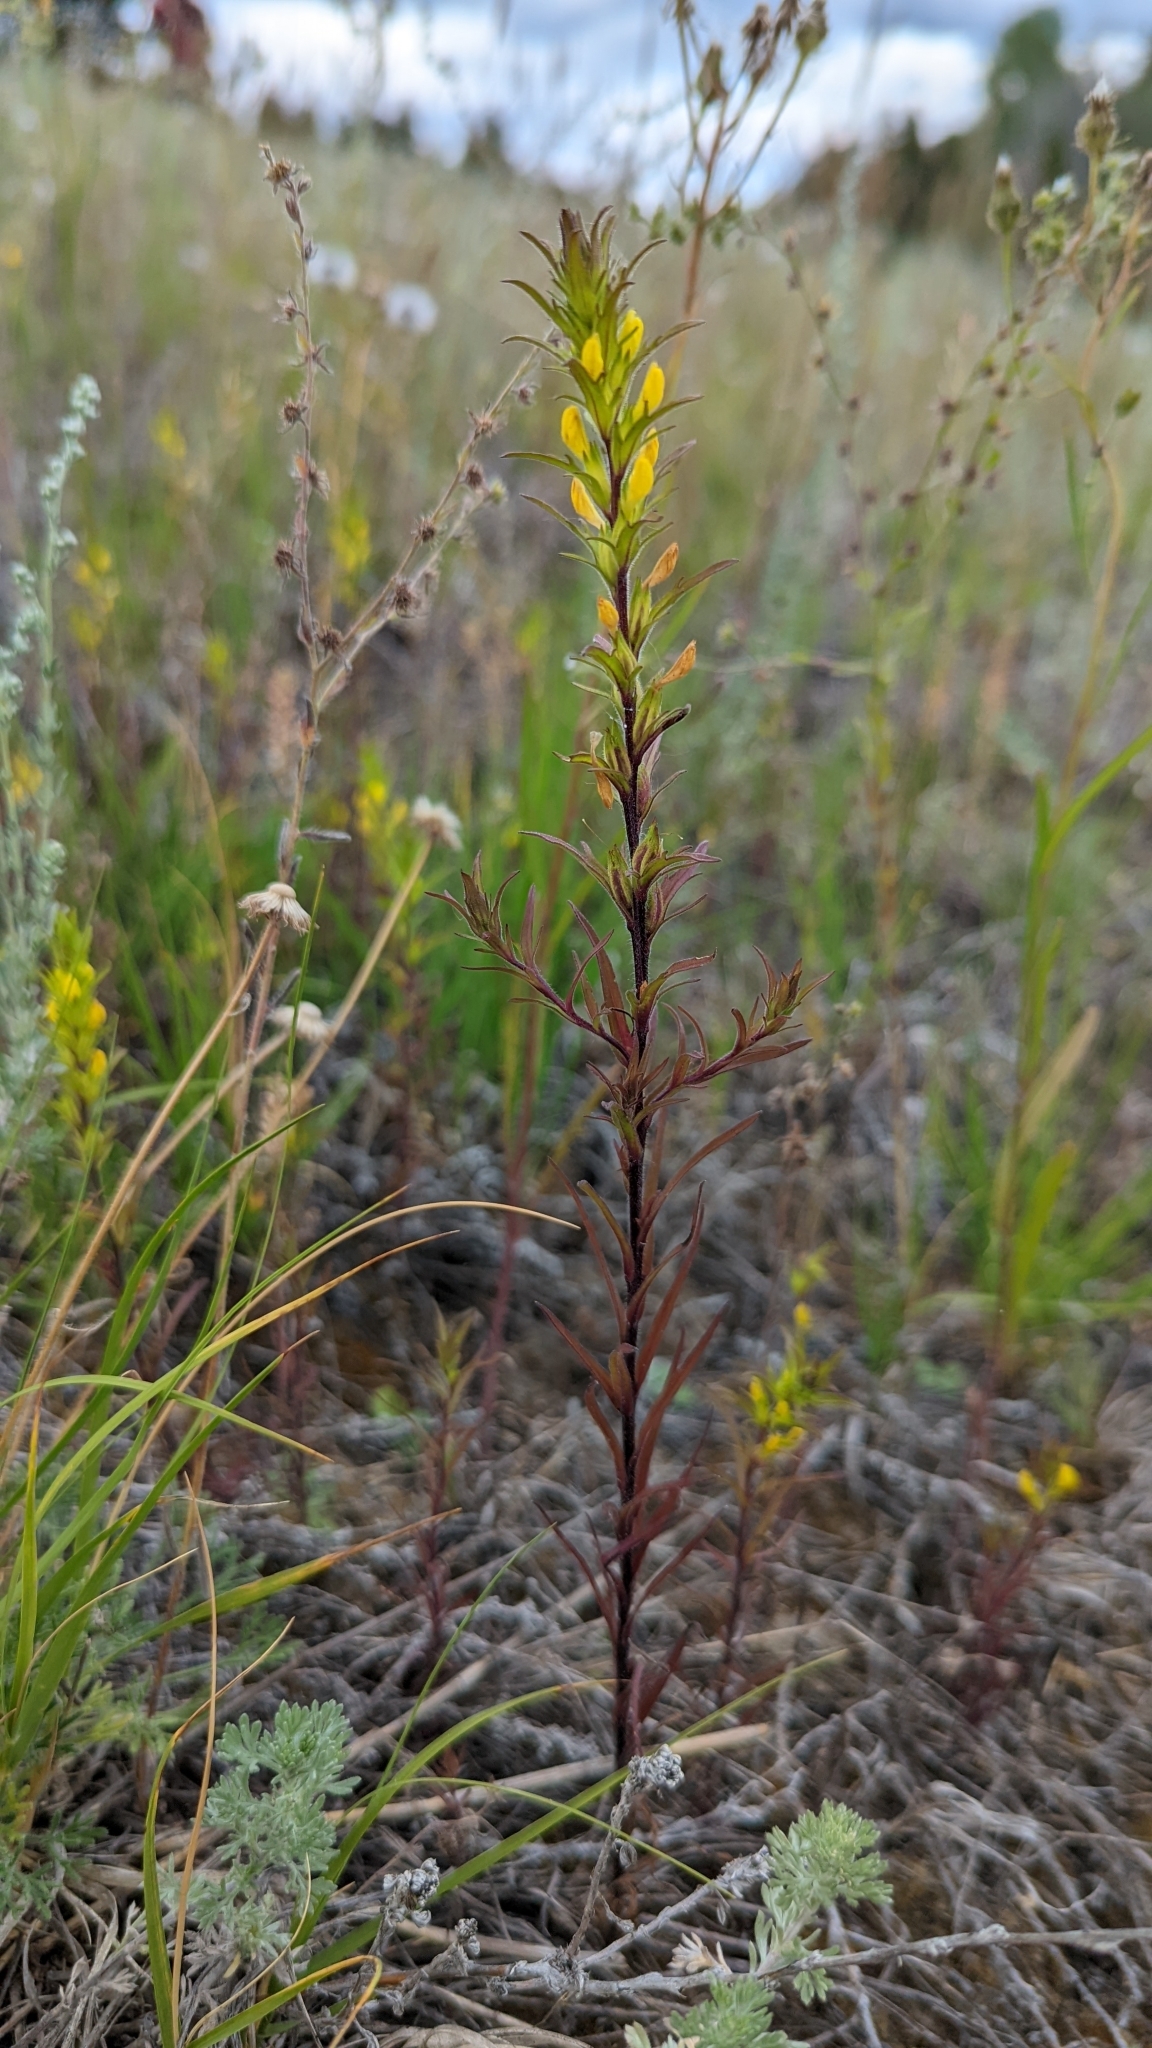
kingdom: Plantae
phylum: Tracheophyta
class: Magnoliopsida
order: Lamiales
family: Orobanchaceae
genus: Orthocarpus
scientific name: Orthocarpus luteus
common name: Golden-tongue owl's-clover
